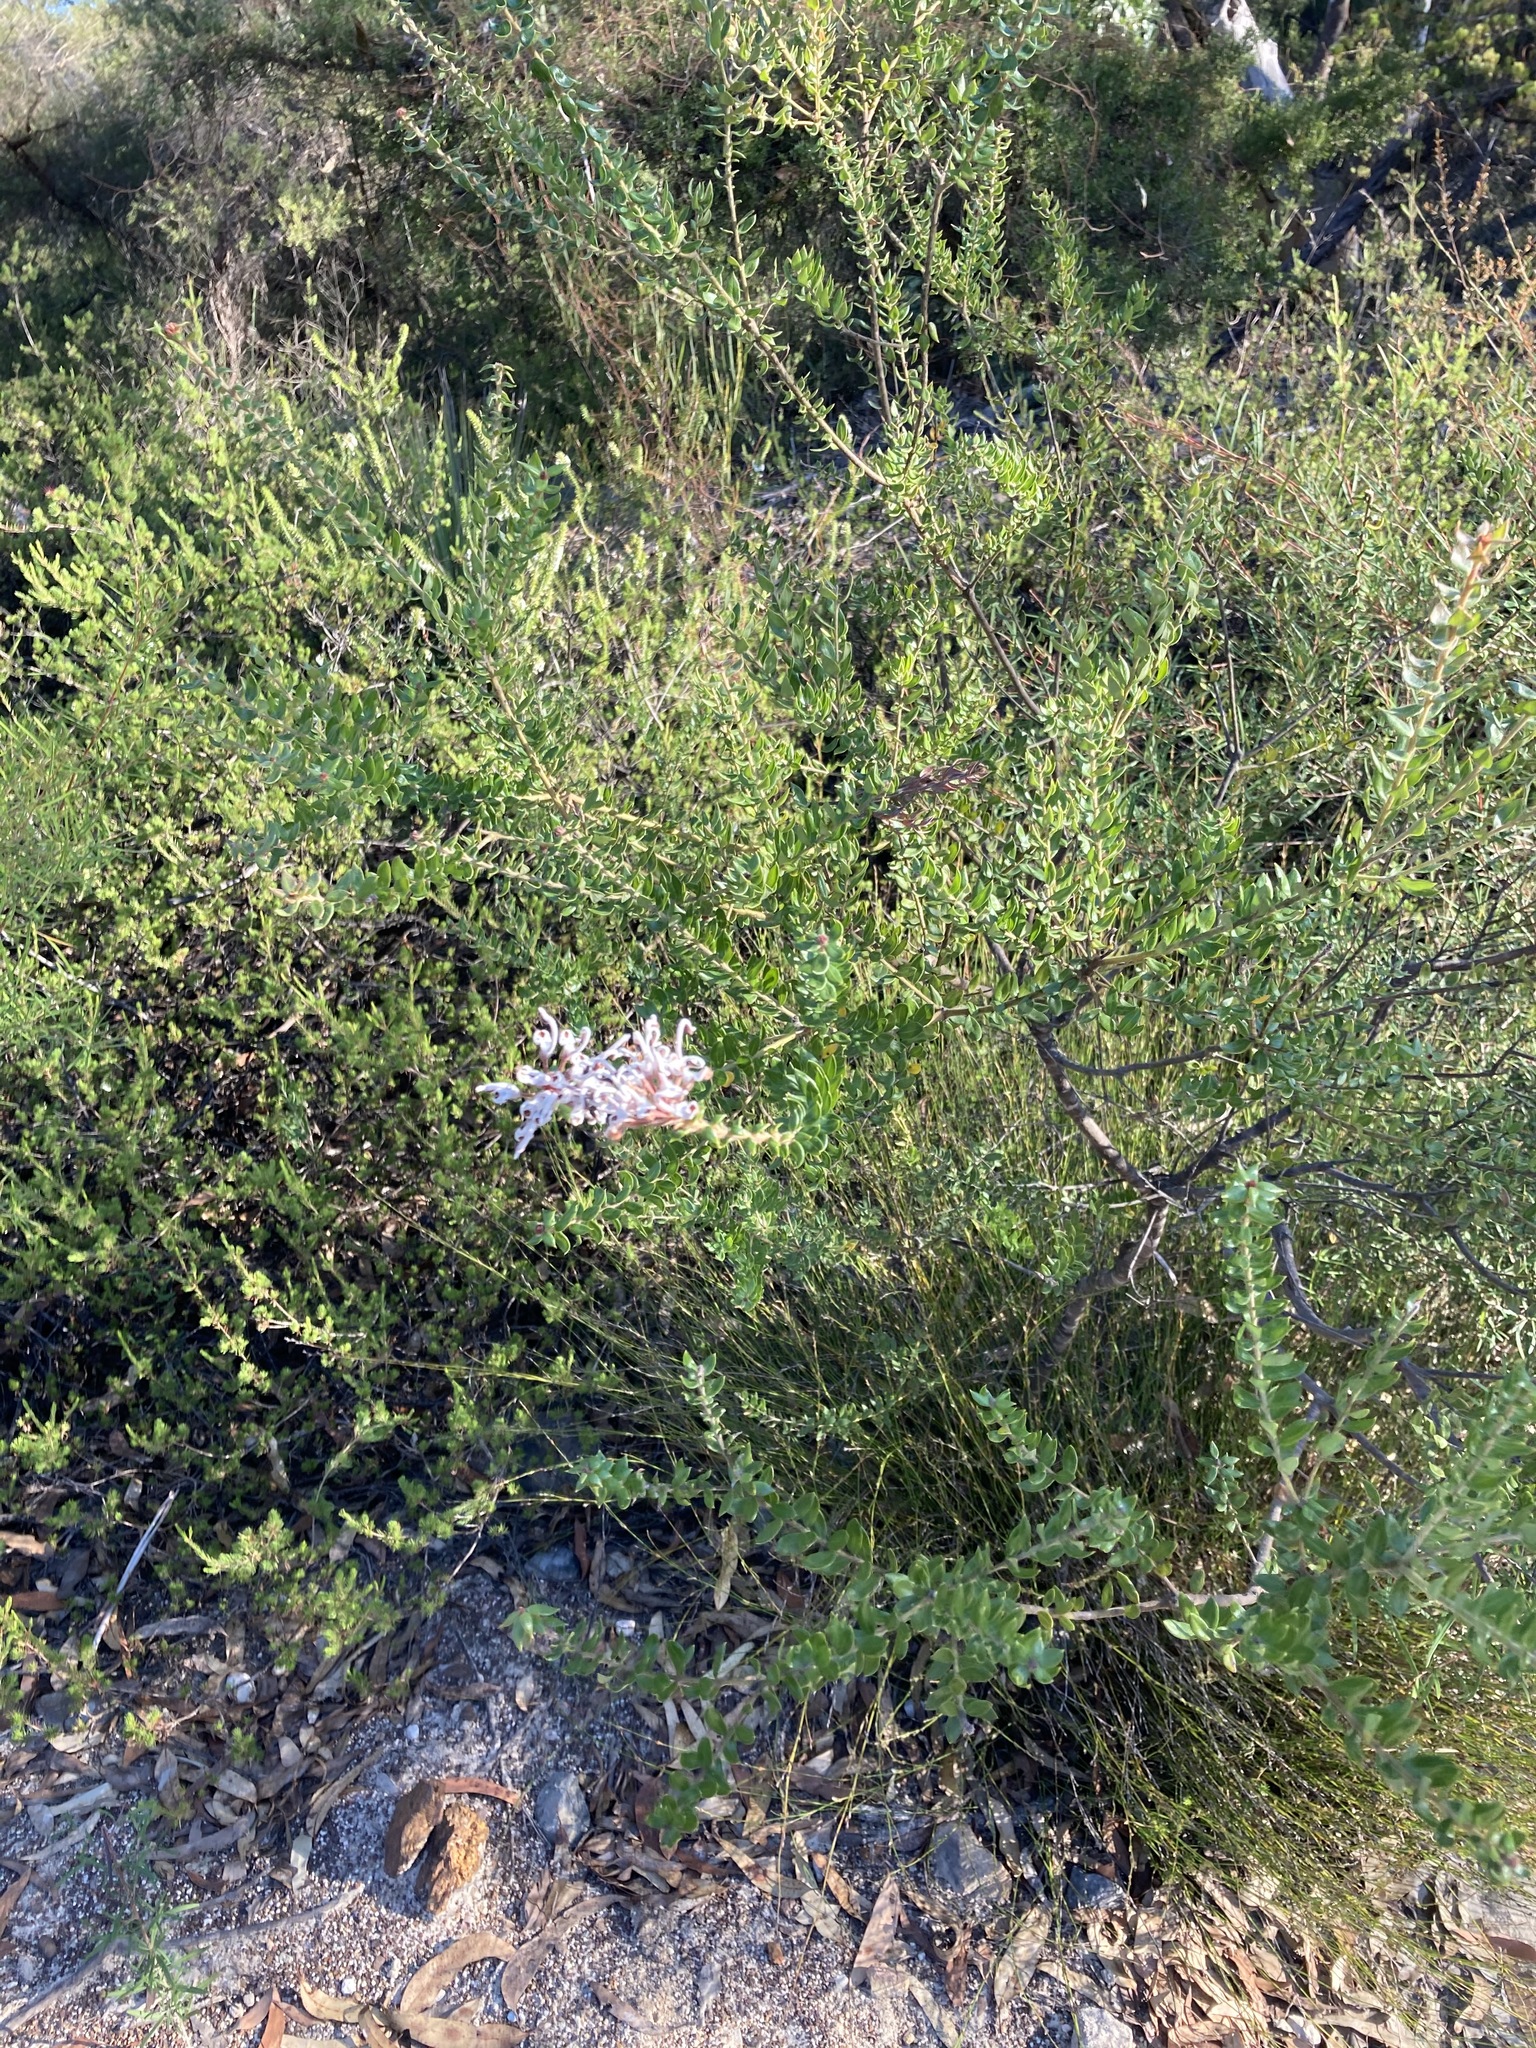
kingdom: Plantae
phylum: Tracheophyta
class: Magnoliopsida
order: Proteales
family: Proteaceae
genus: Grevillea
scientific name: Grevillea buxifolia
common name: Grey spiderflower
